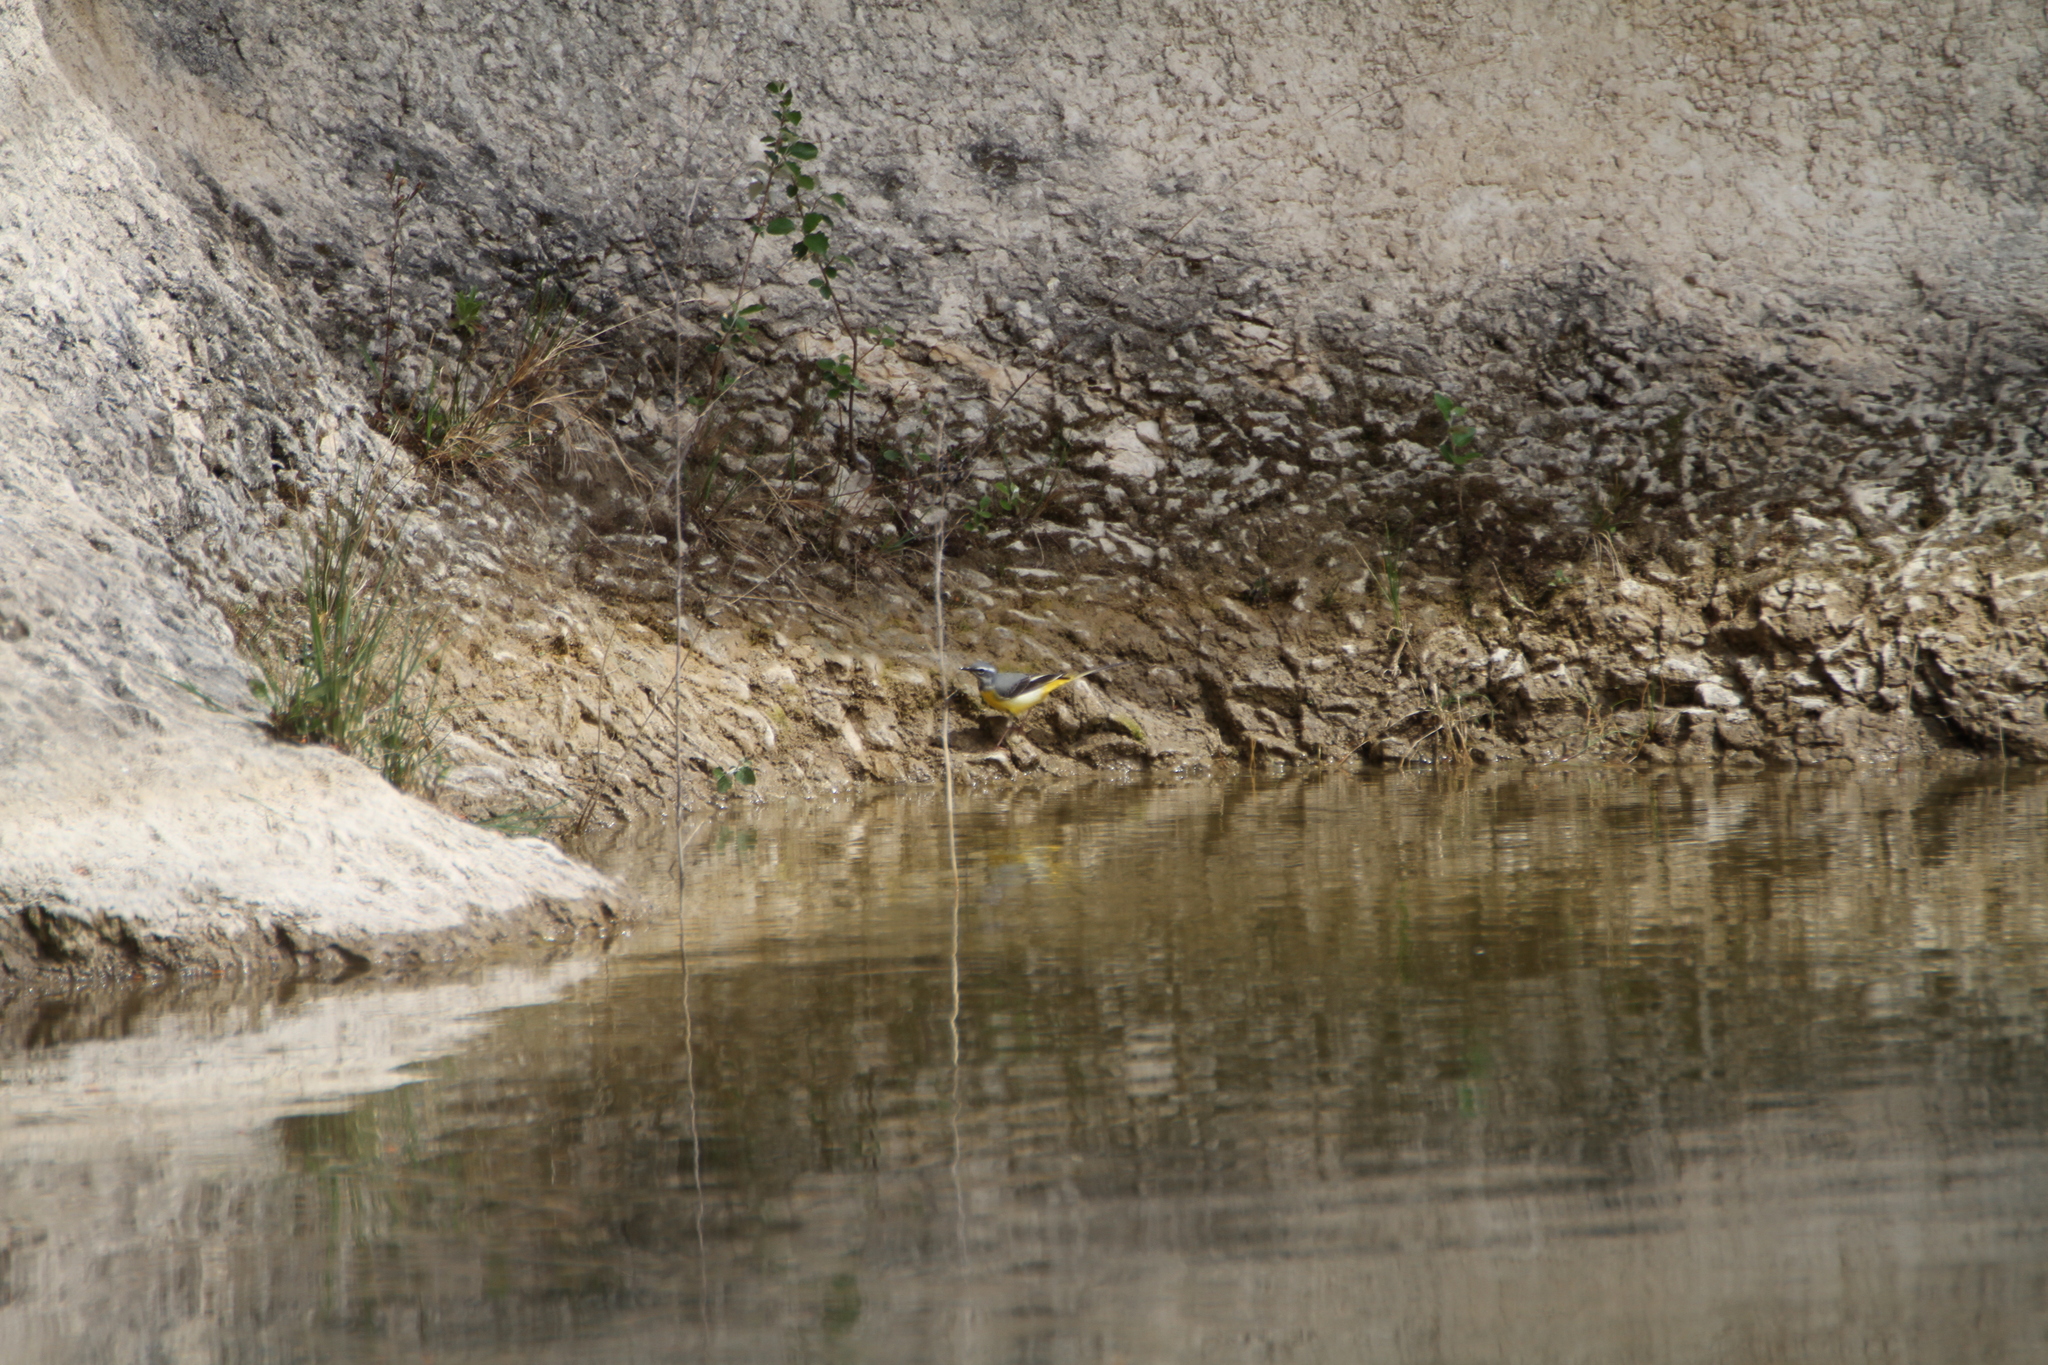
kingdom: Animalia
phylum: Chordata
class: Aves
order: Passeriformes
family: Motacillidae
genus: Motacilla
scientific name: Motacilla cinerea
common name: Grey wagtail
